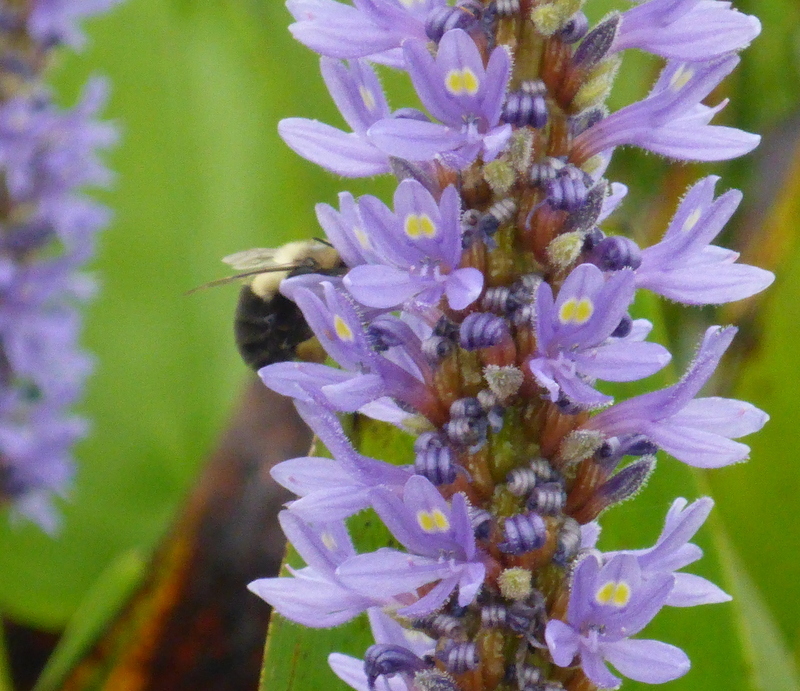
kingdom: Animalia
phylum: Arthropoda
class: Insecta
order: Hymenoptera
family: Apidae
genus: Bombus
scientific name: Bombus impatiens
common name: Common eastern bumble bee
